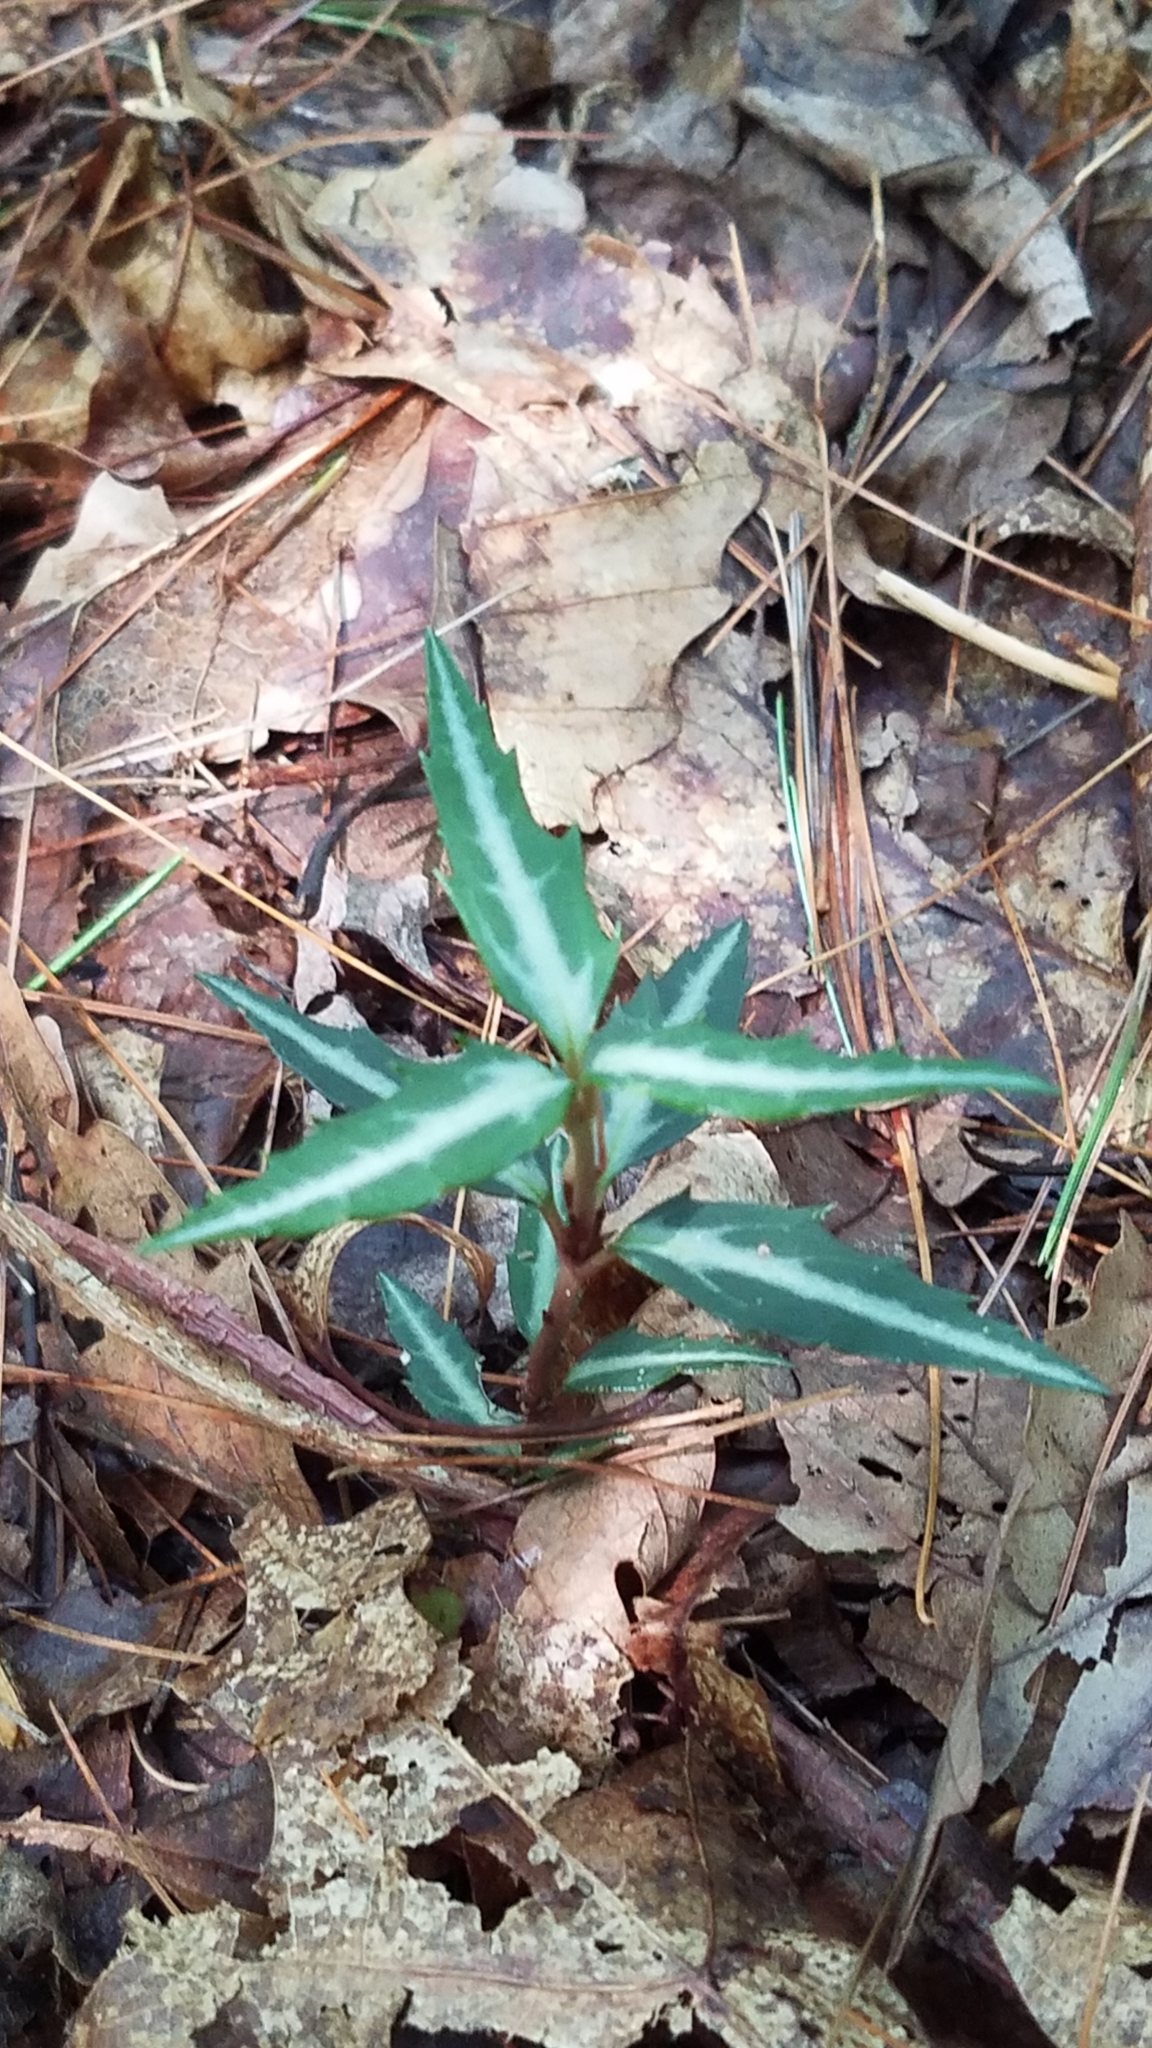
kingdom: Plantae
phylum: Tracheophyta
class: Magnoliopsida
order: Ericales
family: Ericaceae
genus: Chimaphila
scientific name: Chimaphila maculata
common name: Spotted pipsissewa
